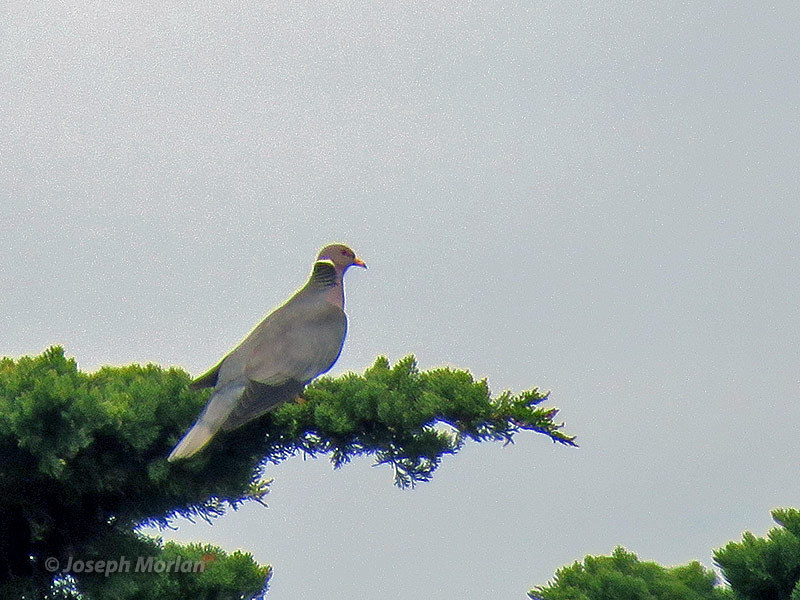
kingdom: Animalia
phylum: Chordata
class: Aves
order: Columbiformes
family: Columbidae
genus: Patagioenas
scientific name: Patagioenas fasciata
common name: Band-tailed pigeon
